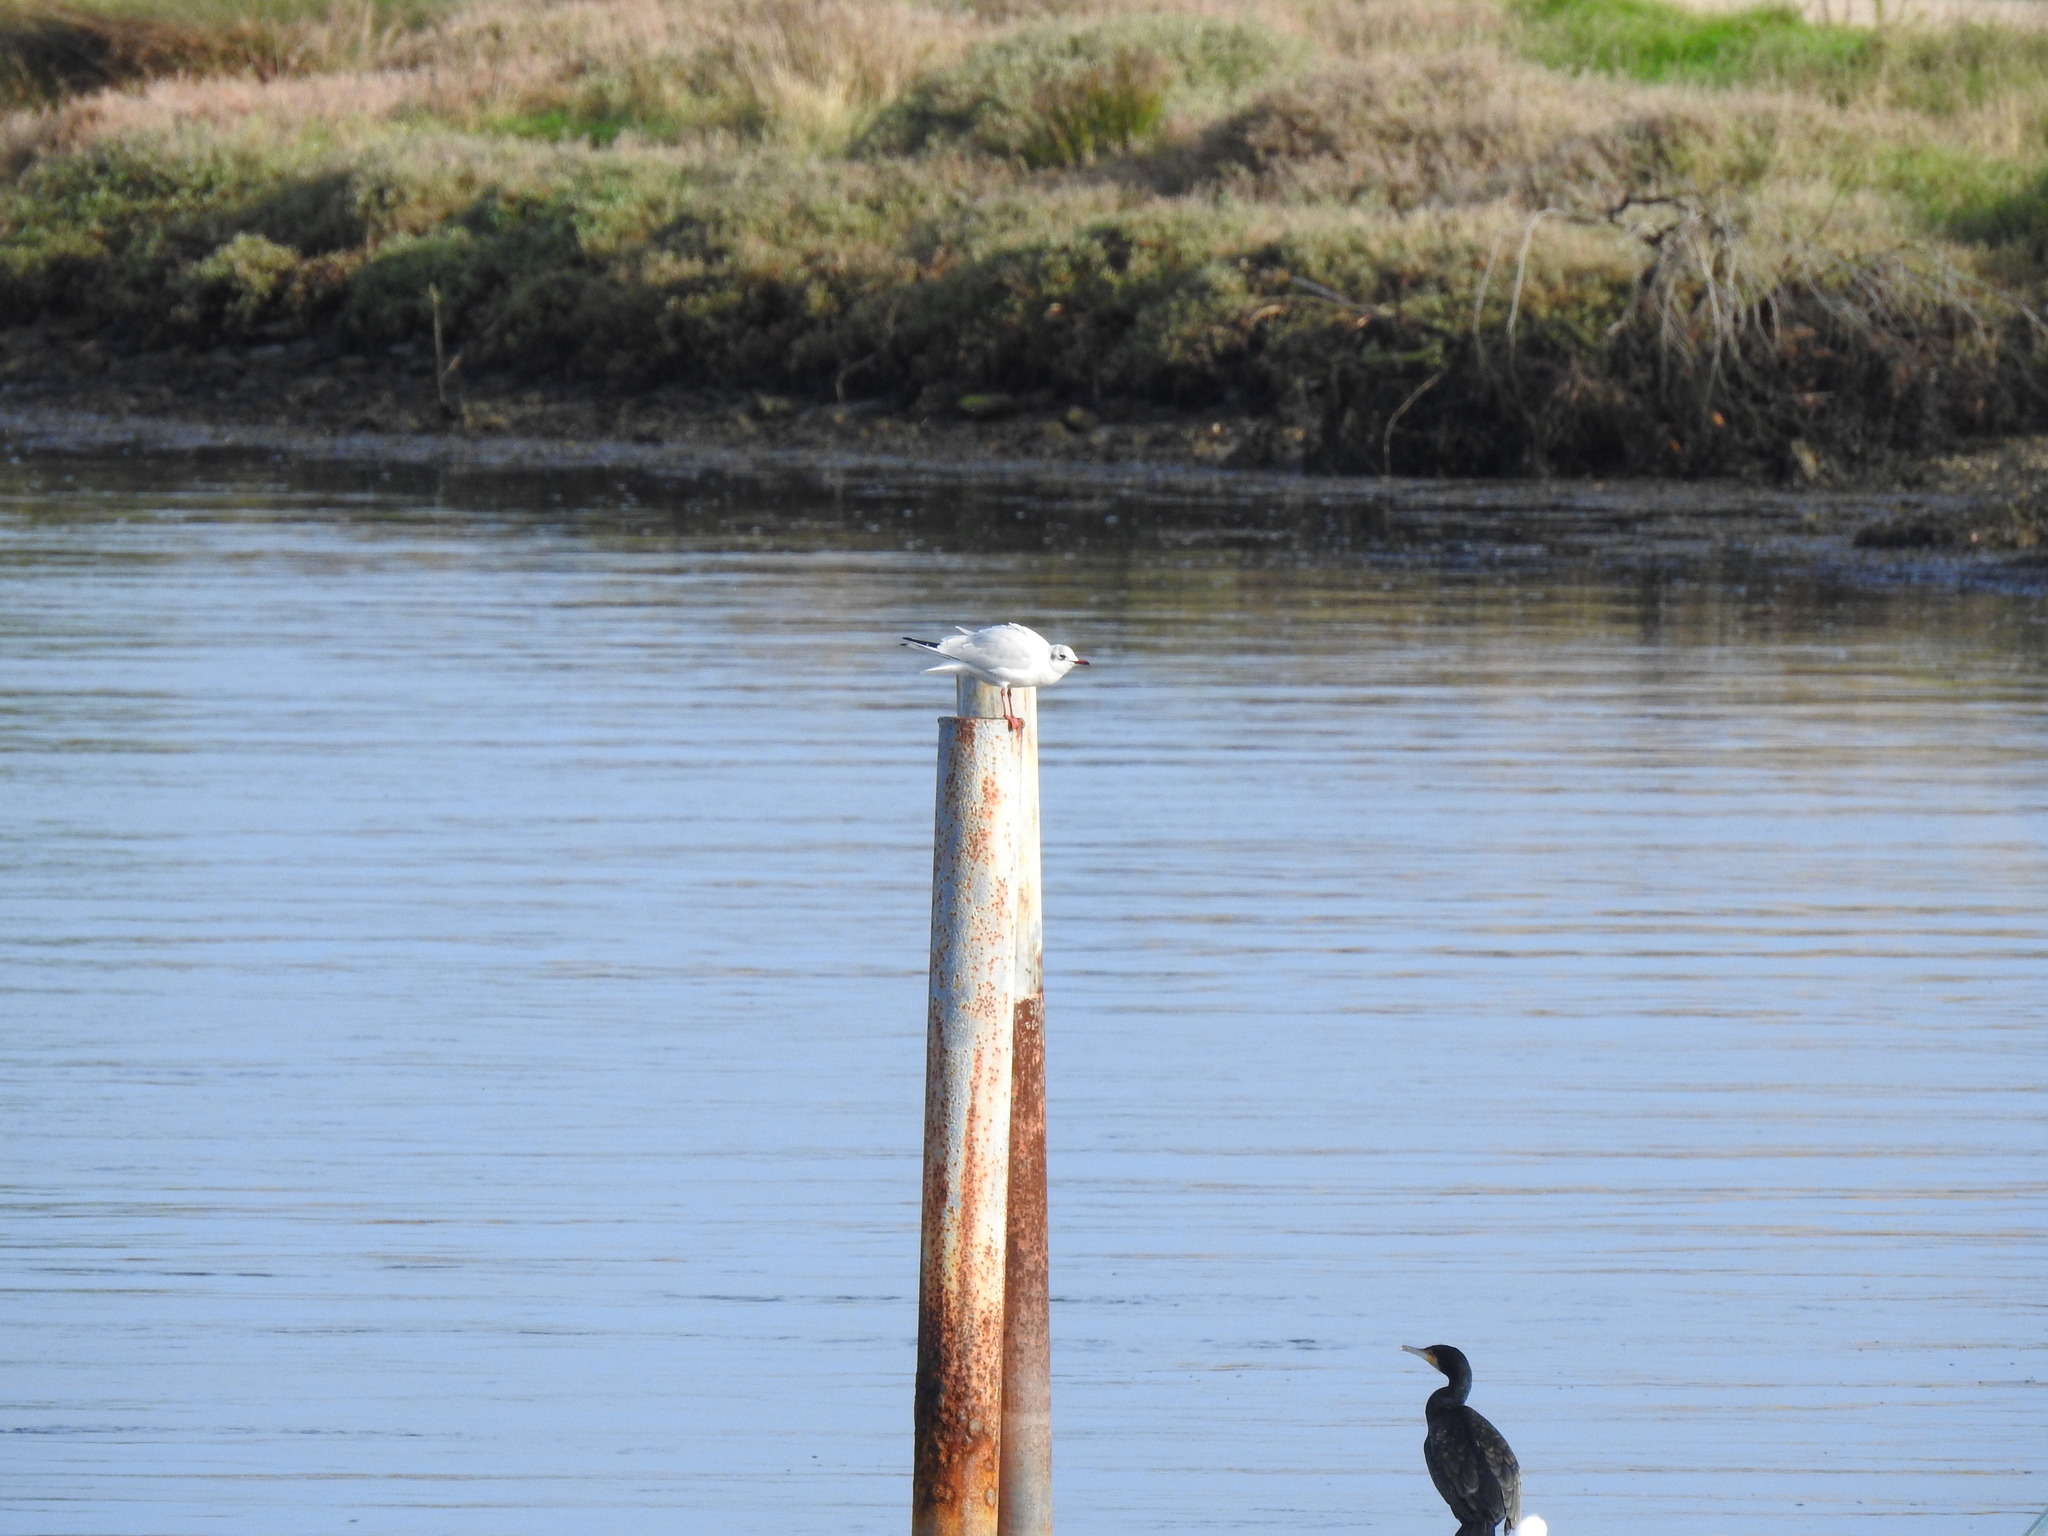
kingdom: Animalia
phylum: Chordata
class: Aves
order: Charadriiformes
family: Laridae
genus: Chroicocephalus
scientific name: Chroicocephalus ridibundus
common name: Black-headed gull
